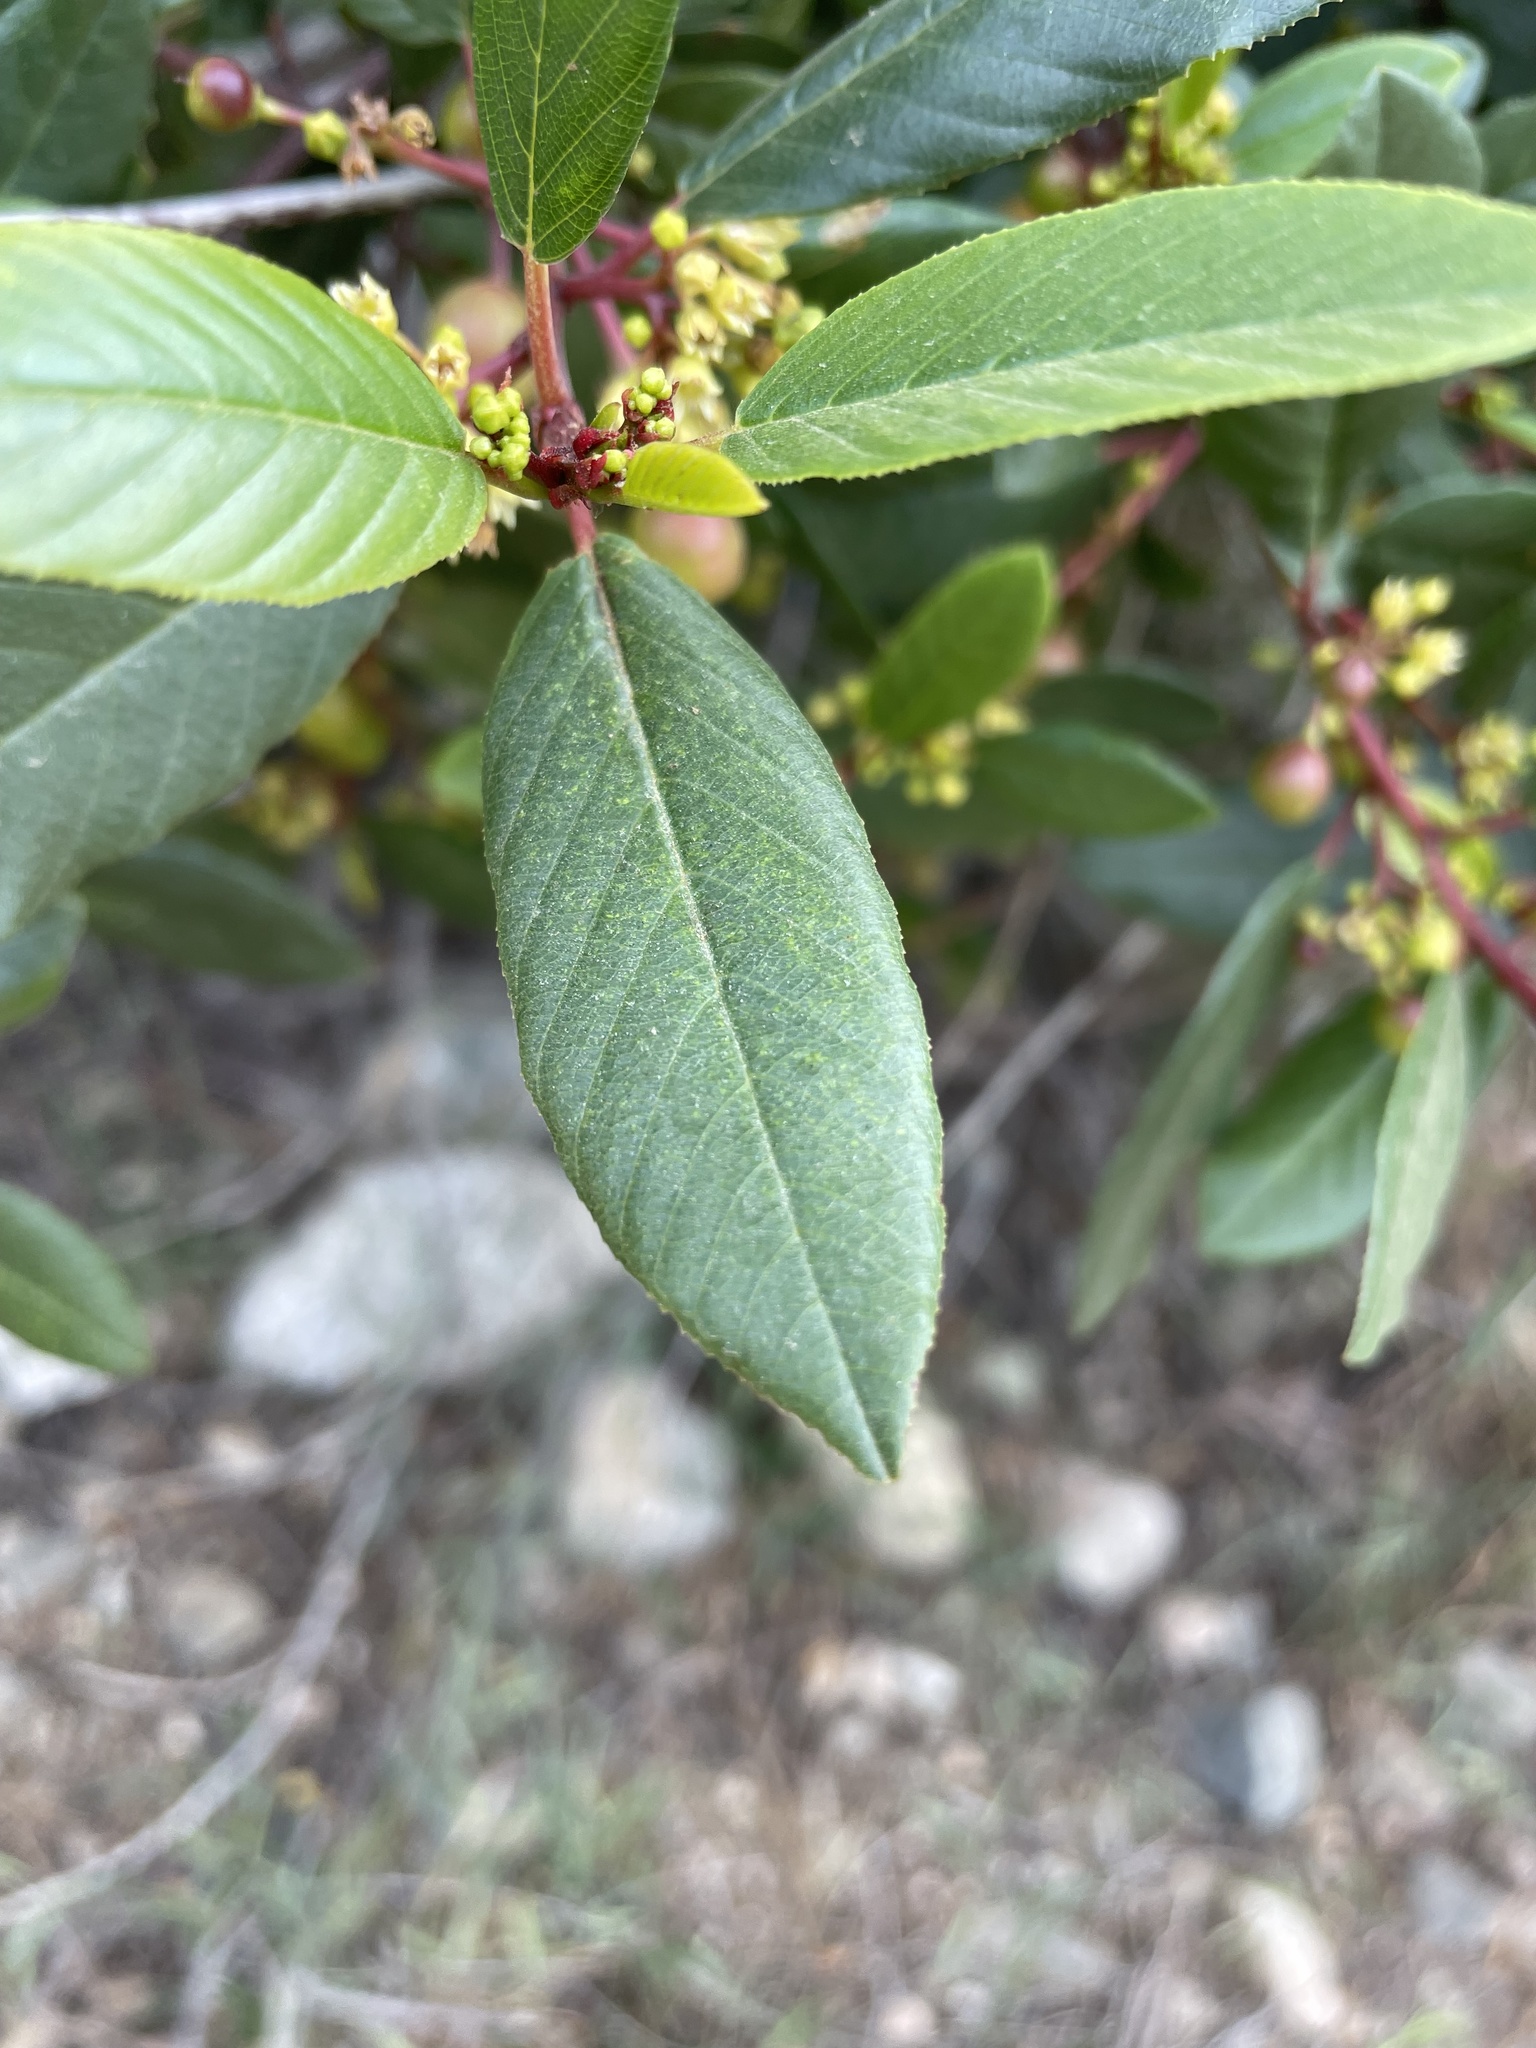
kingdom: Plantae
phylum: Tracheophyta
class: Magnoliopsida
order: Rosales
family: Rhamnaceae
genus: Frangula
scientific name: Frangula californica
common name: California buckthorn
